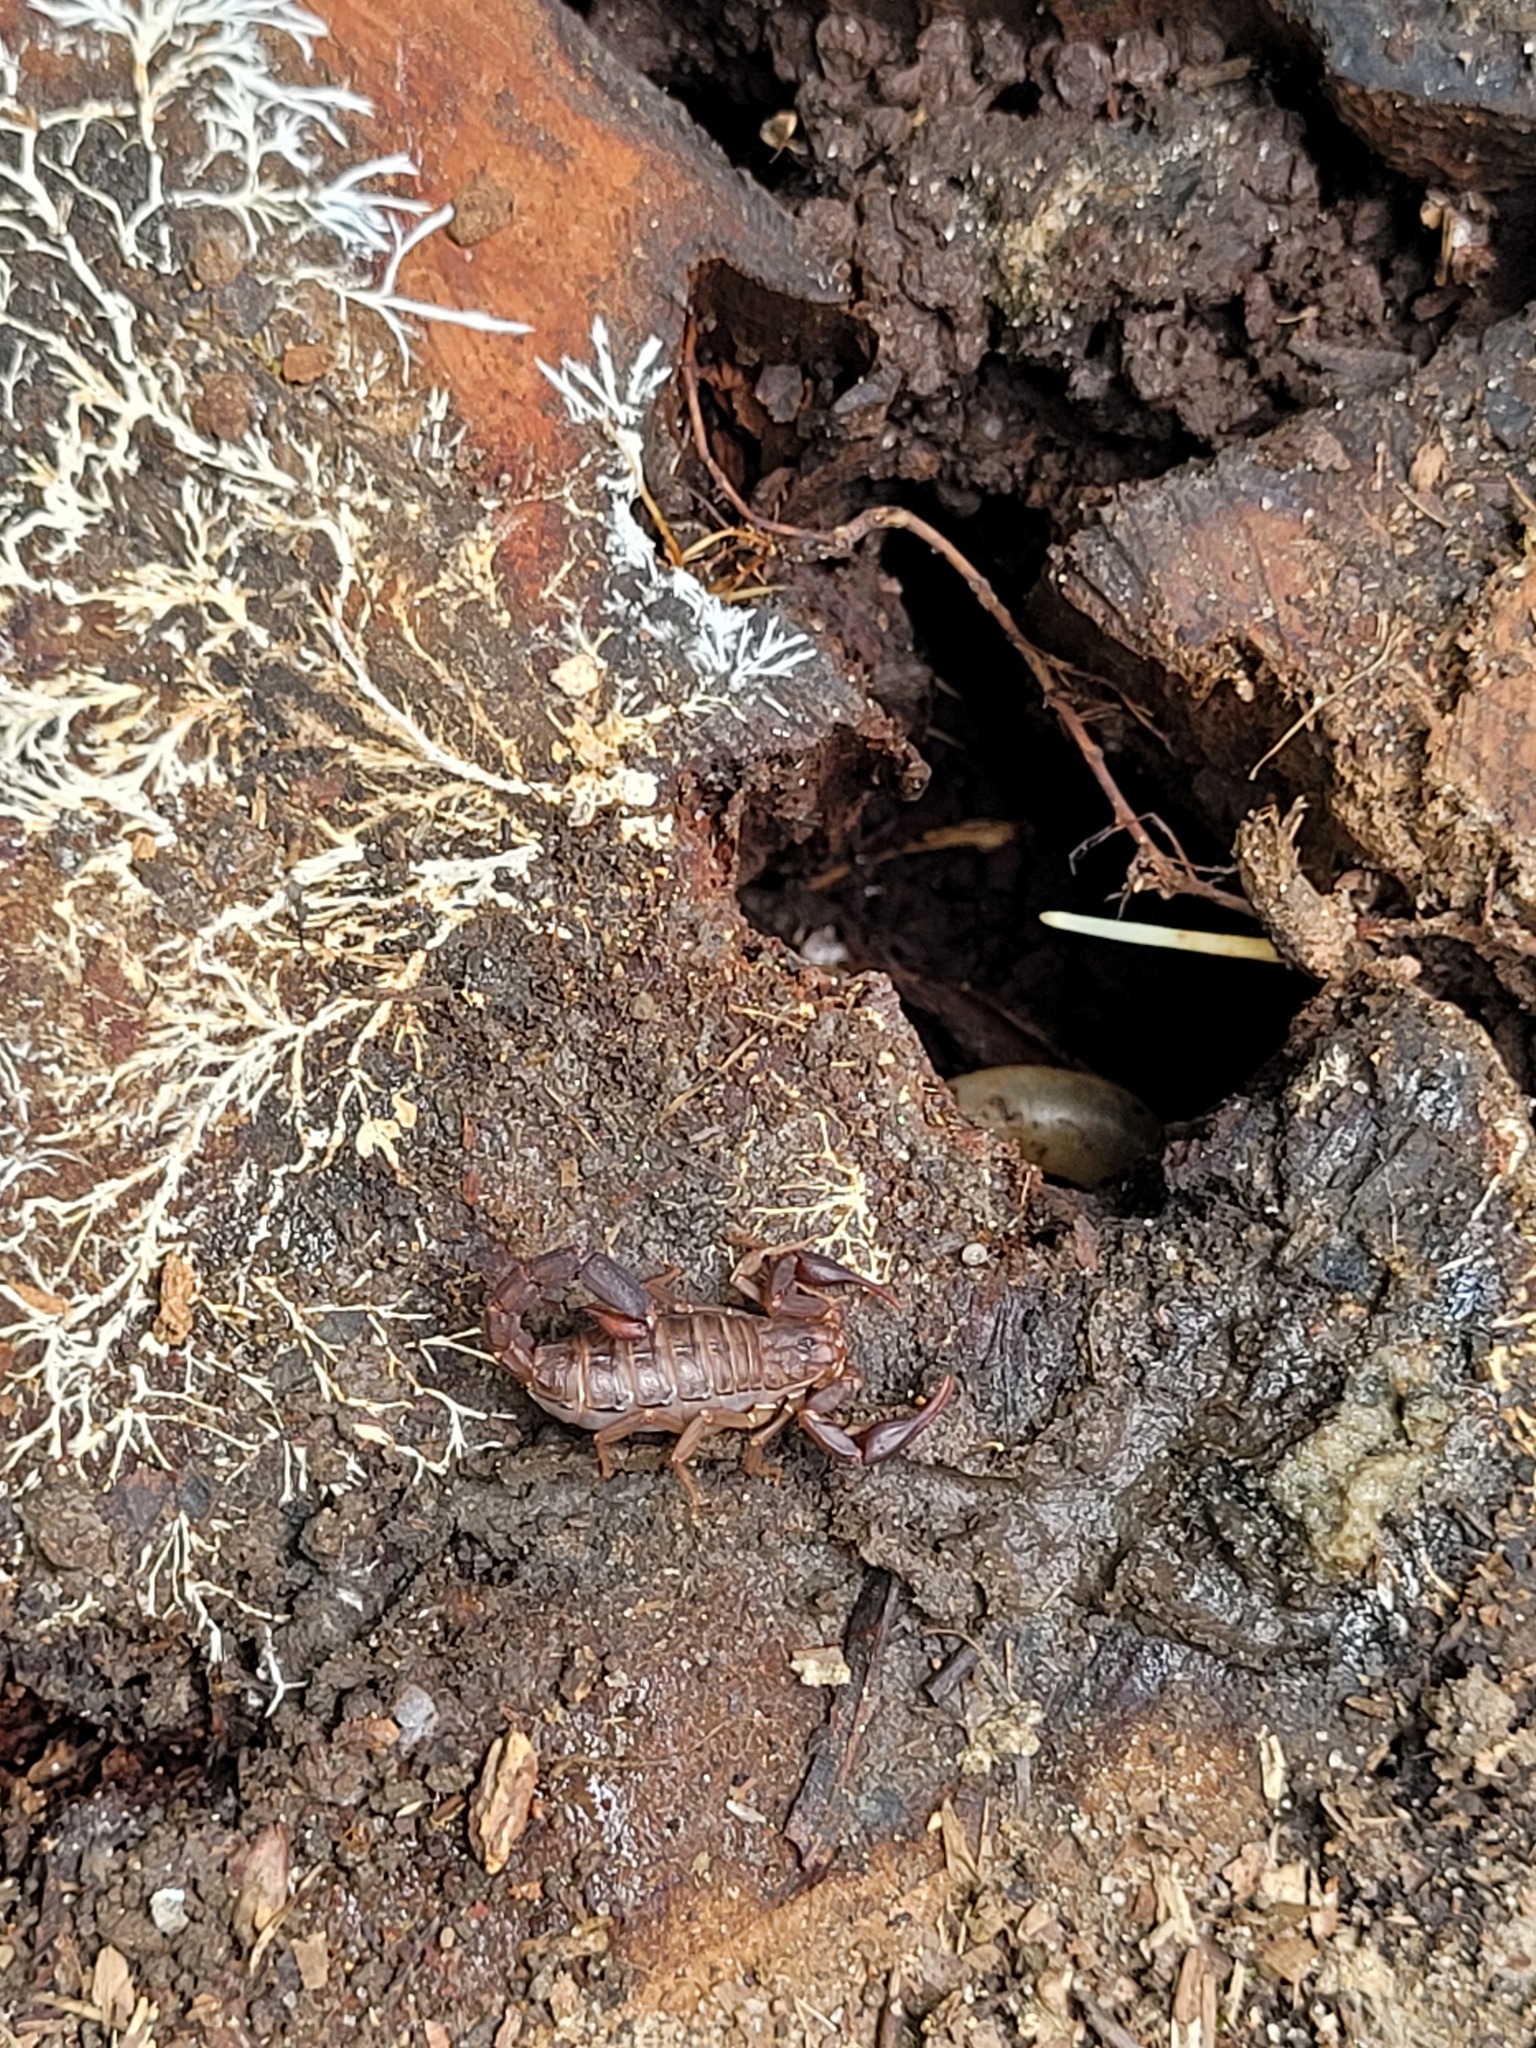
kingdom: Animalia
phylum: Arthropoda
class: Arachnida
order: Scorpiones
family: Vaejovidae
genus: Vaejovis
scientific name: Vaejovis carolinianus
